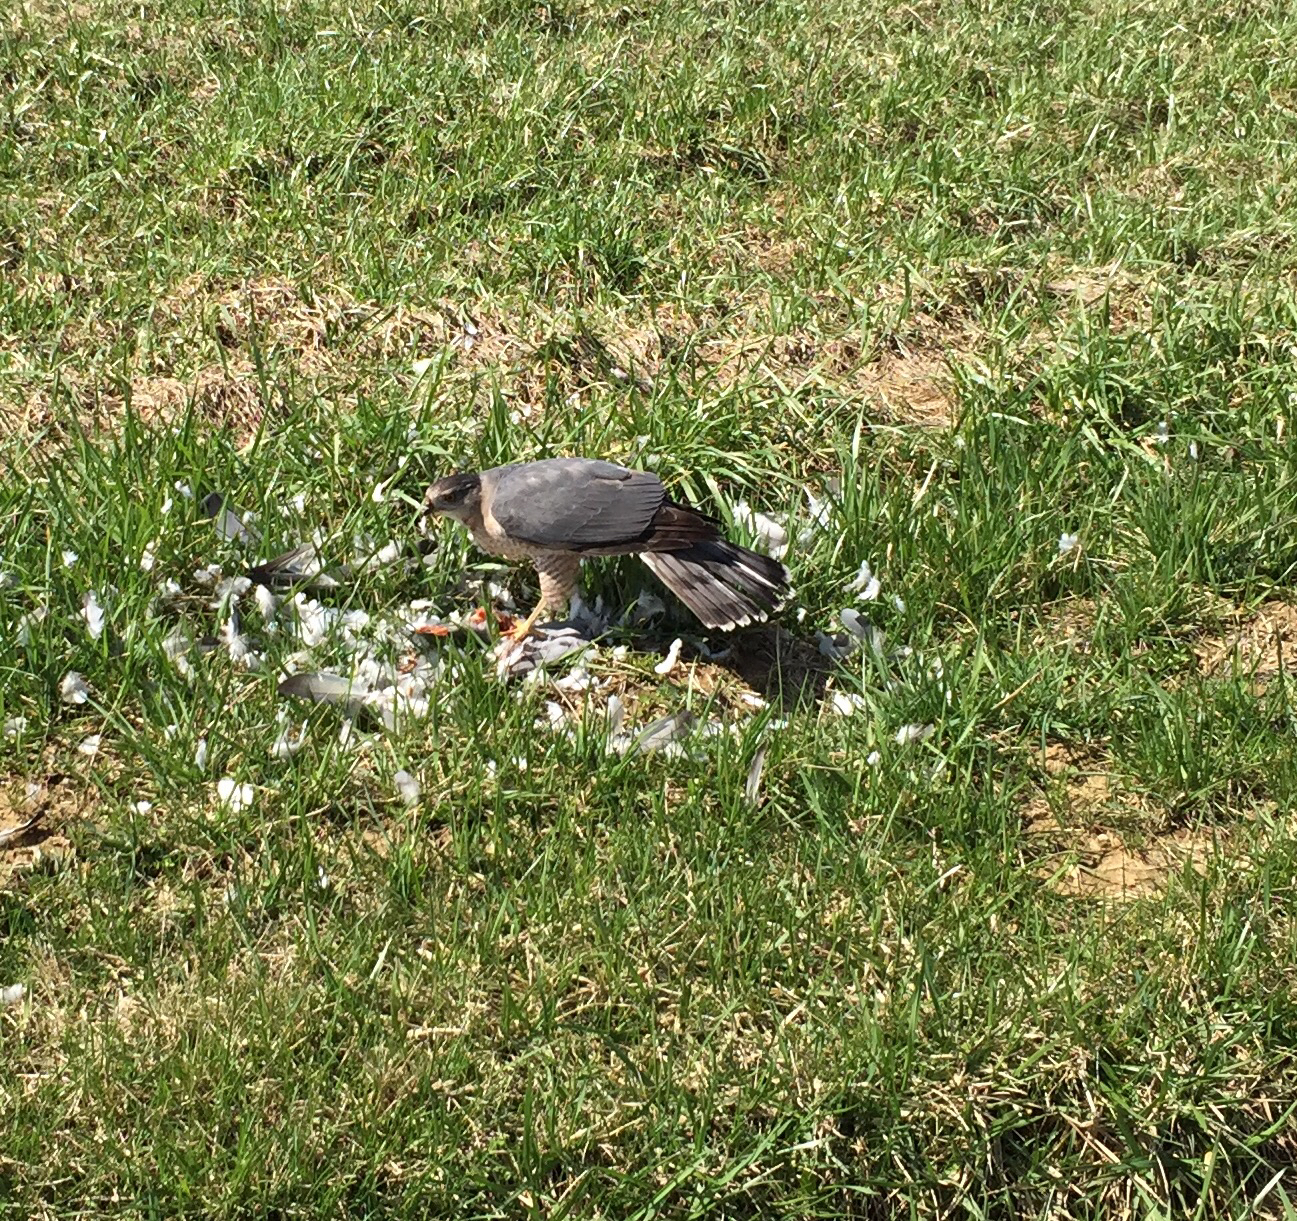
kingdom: Animalia
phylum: Chordata
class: Aves
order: Accipitriformes
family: Accipitridae
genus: Accipiter
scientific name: Accipiter cooperii
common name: Cooper's hawk
